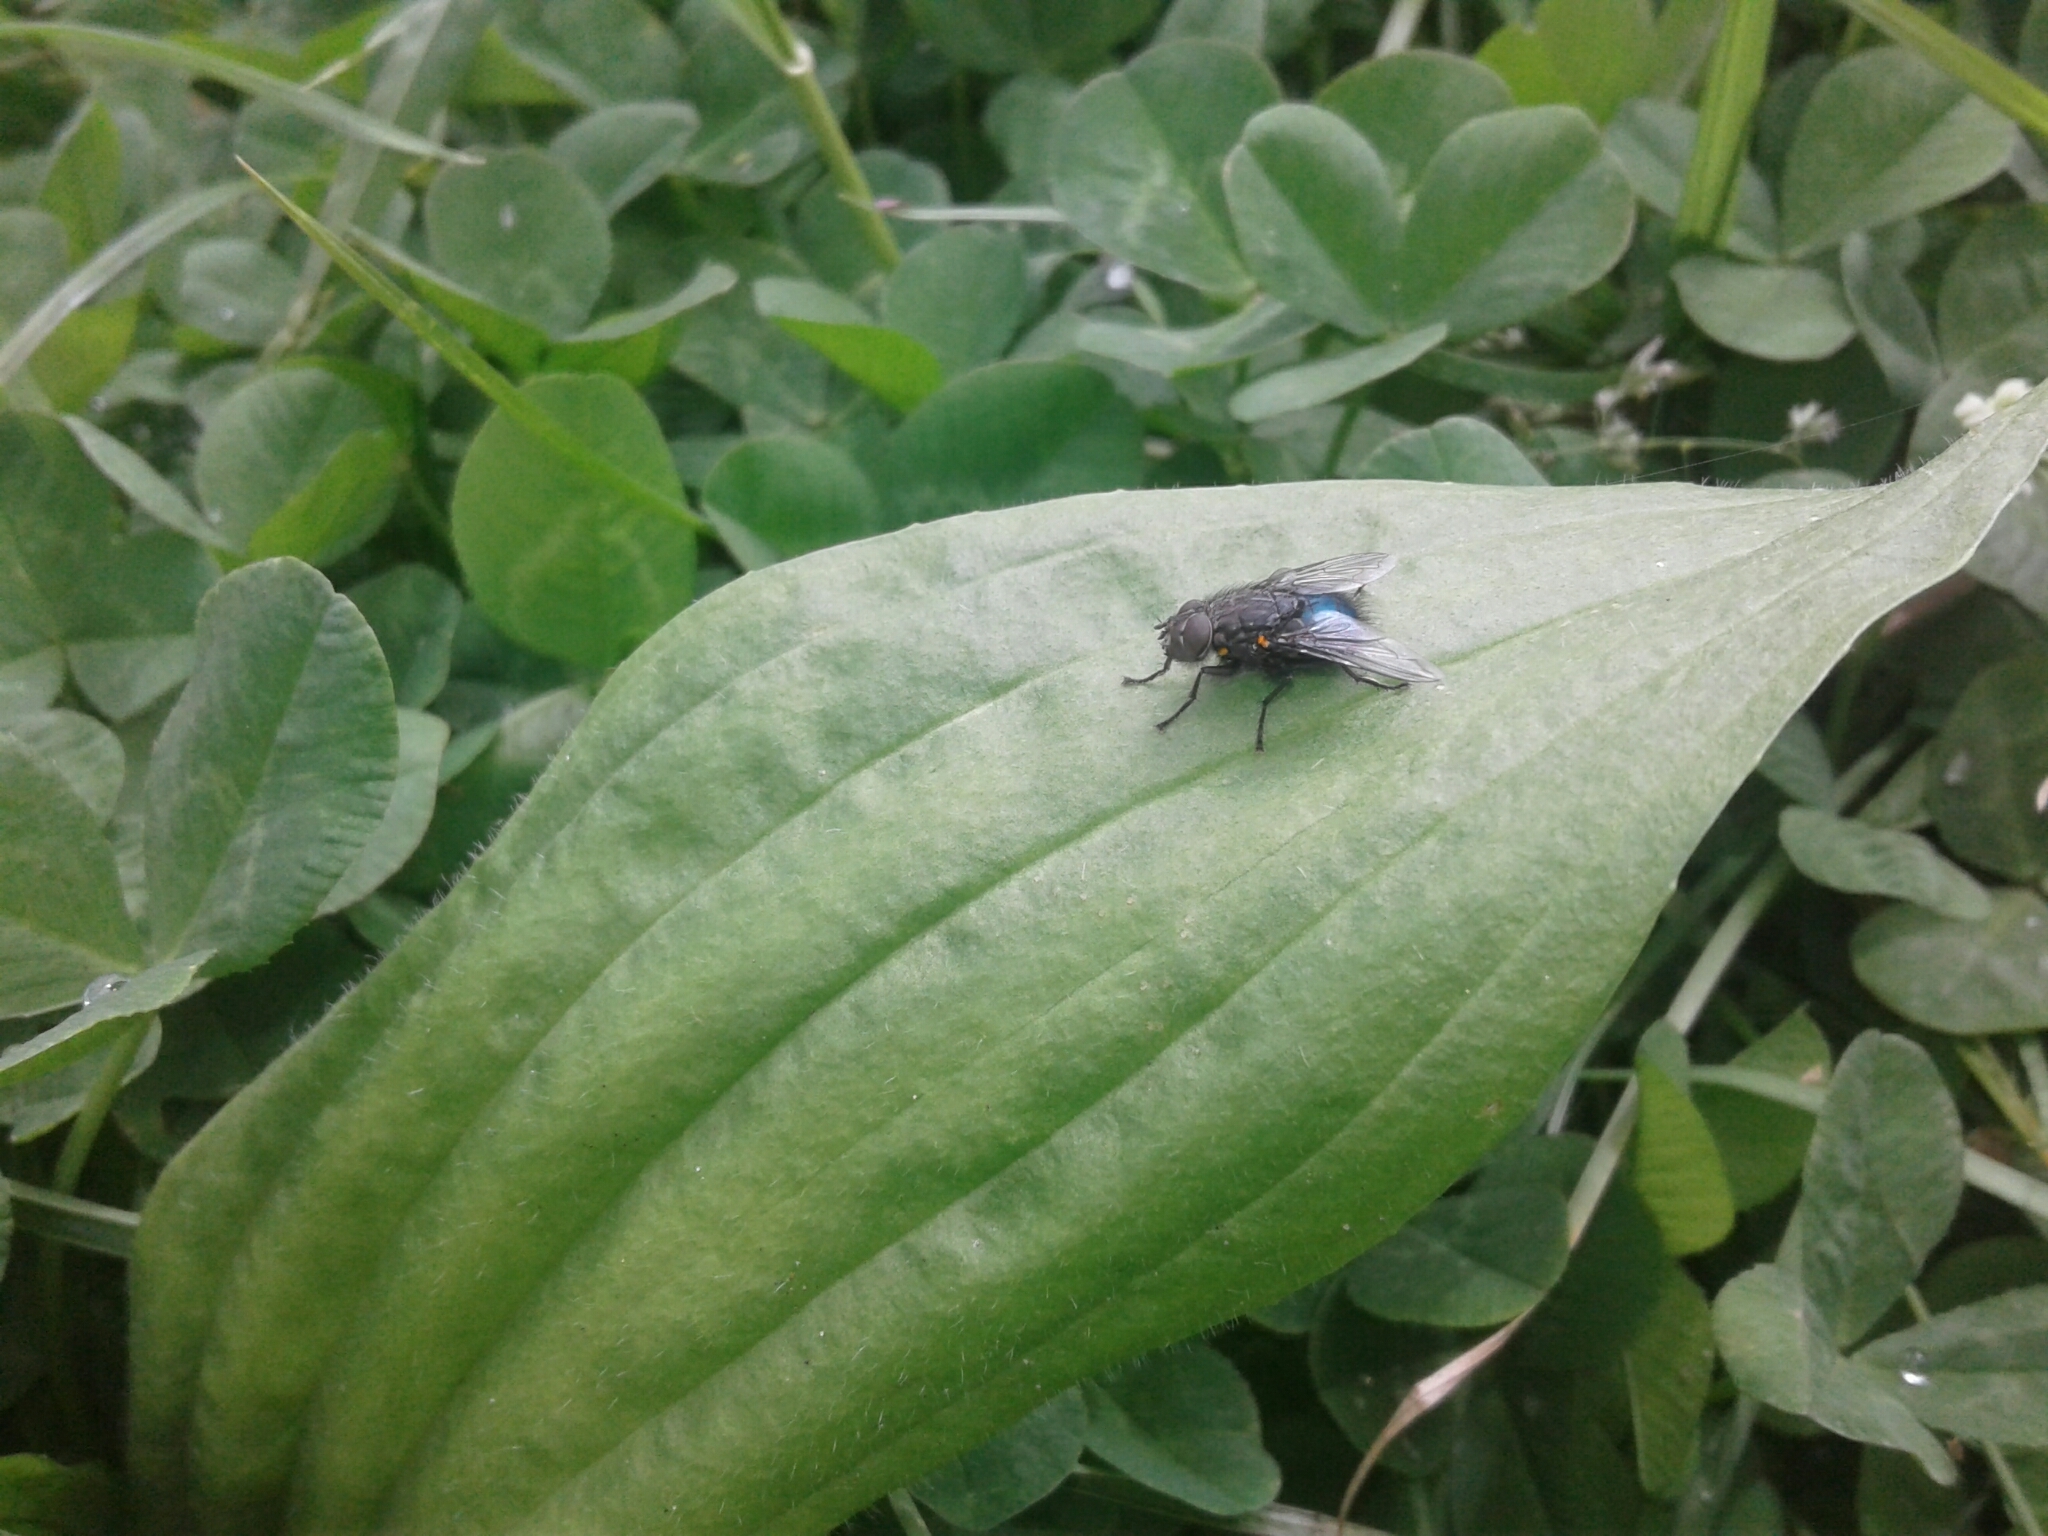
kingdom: Animalia
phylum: Arthropoda
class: Insecta
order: Diptera
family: Calliphoridae
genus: Calliphora
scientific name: Calliphora quadrimaculata
